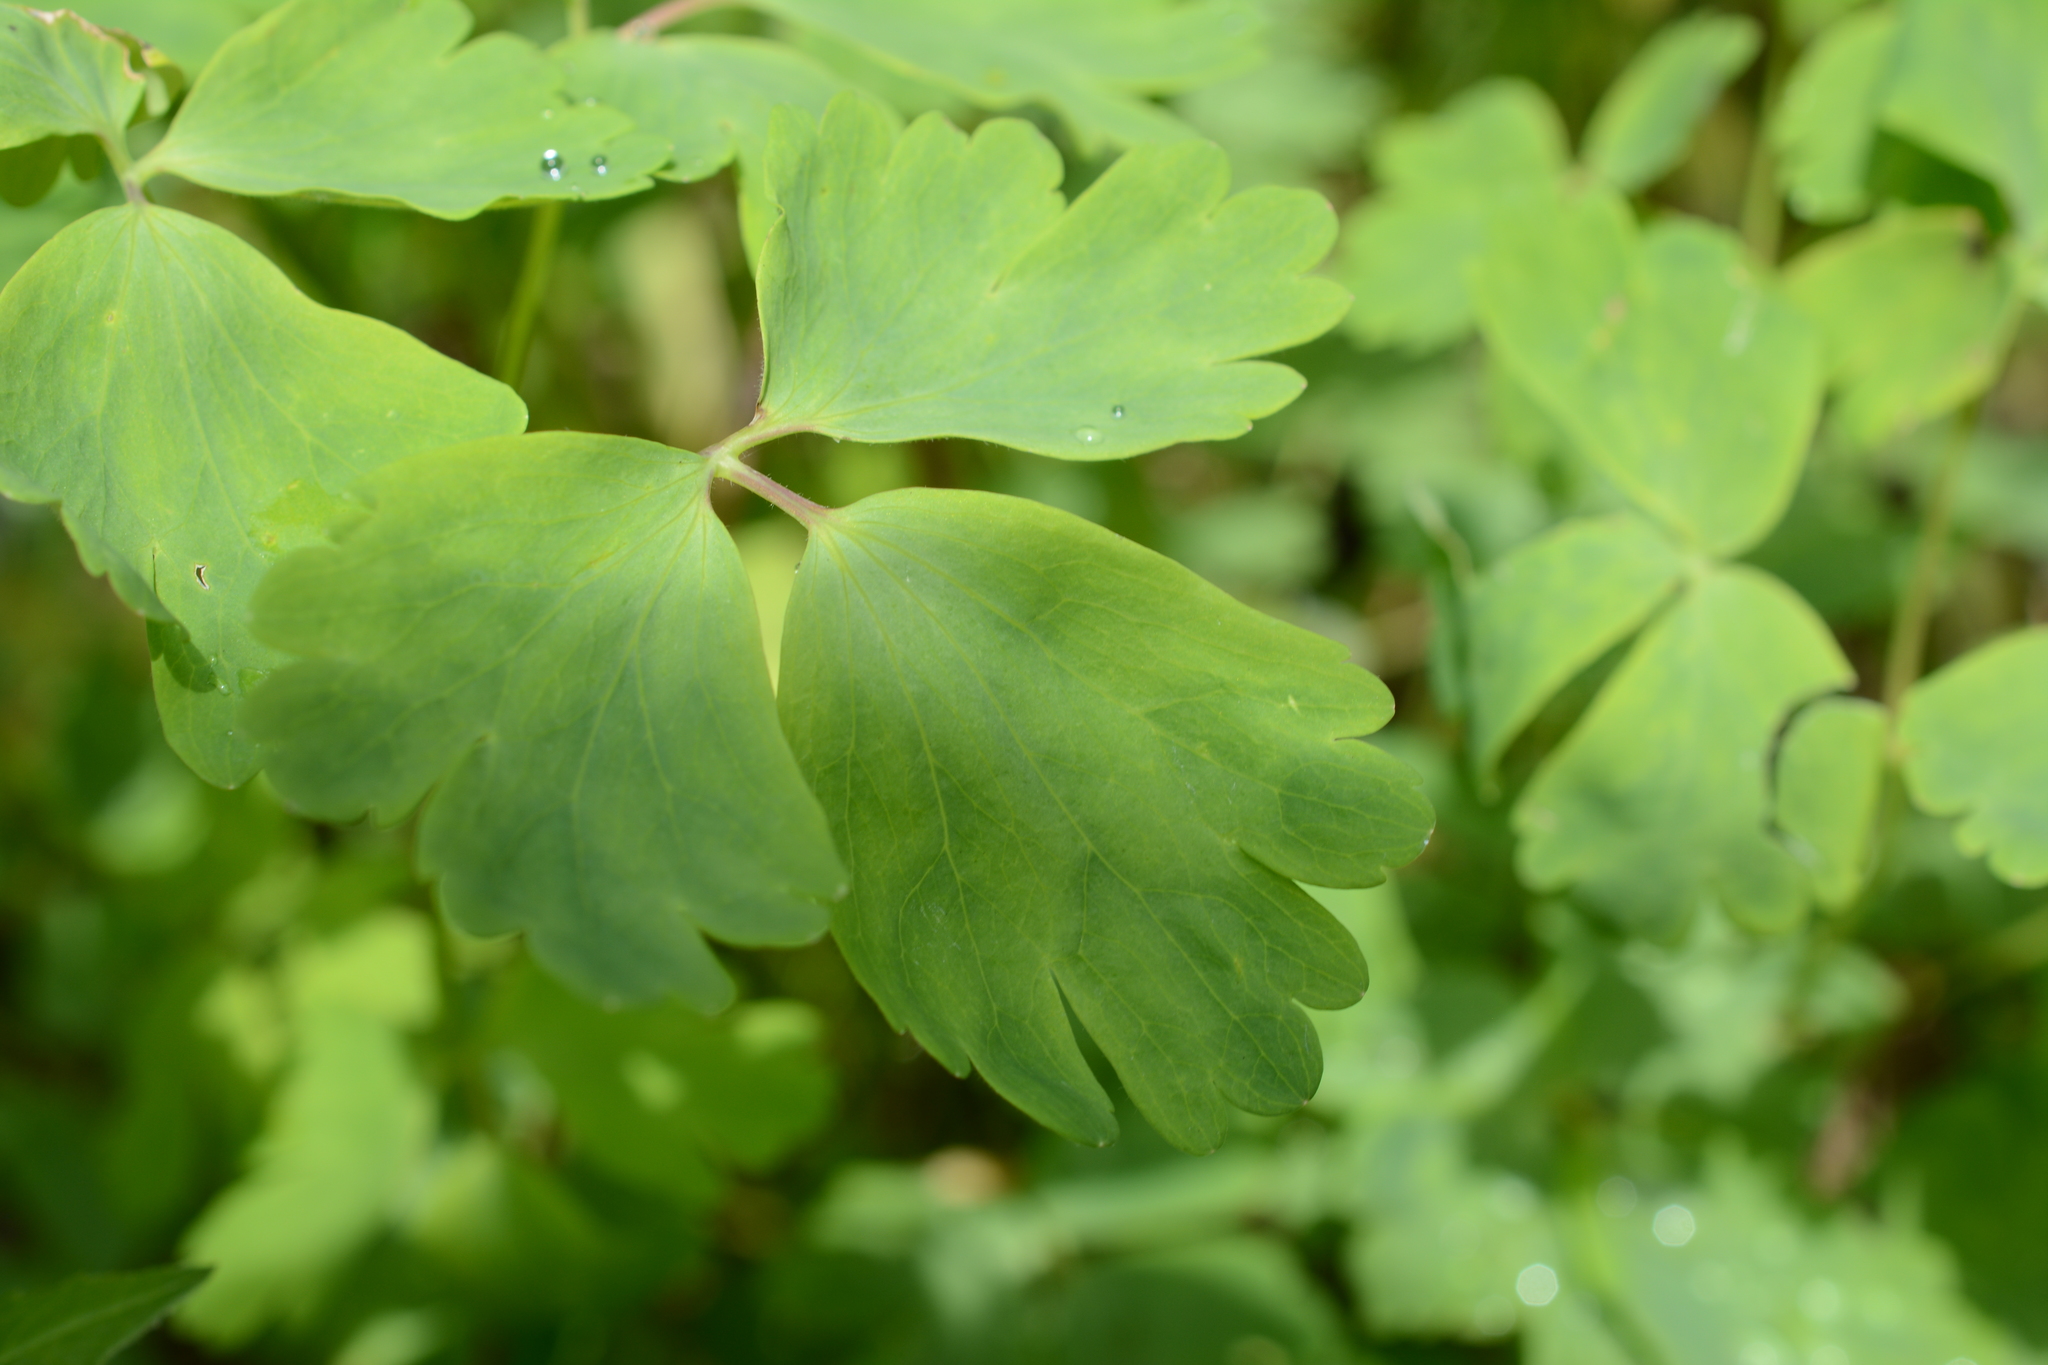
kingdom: Plantae
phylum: Tracheophyta
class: Magnoliopsida
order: Ranunculales
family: Ranunculaceae
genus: Aquilegia
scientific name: Aquilegia flavescens
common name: Yellow columbine
